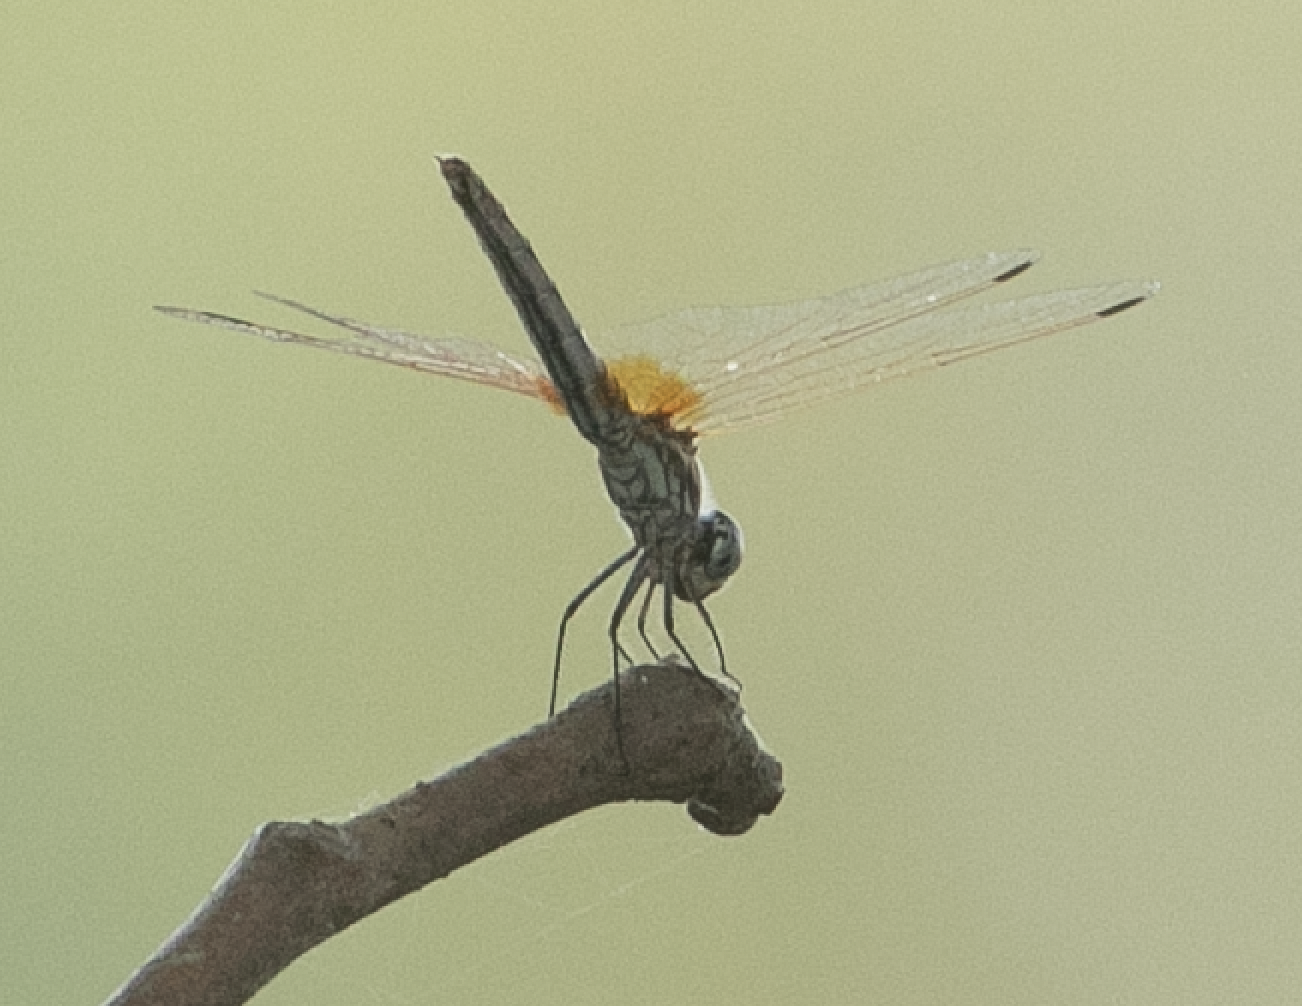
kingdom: Animalia
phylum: Arthropoda
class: Insecta
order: Odonata
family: Libellulidae
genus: Trithemis
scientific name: Trithemis annulata
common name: Violet dropwing
